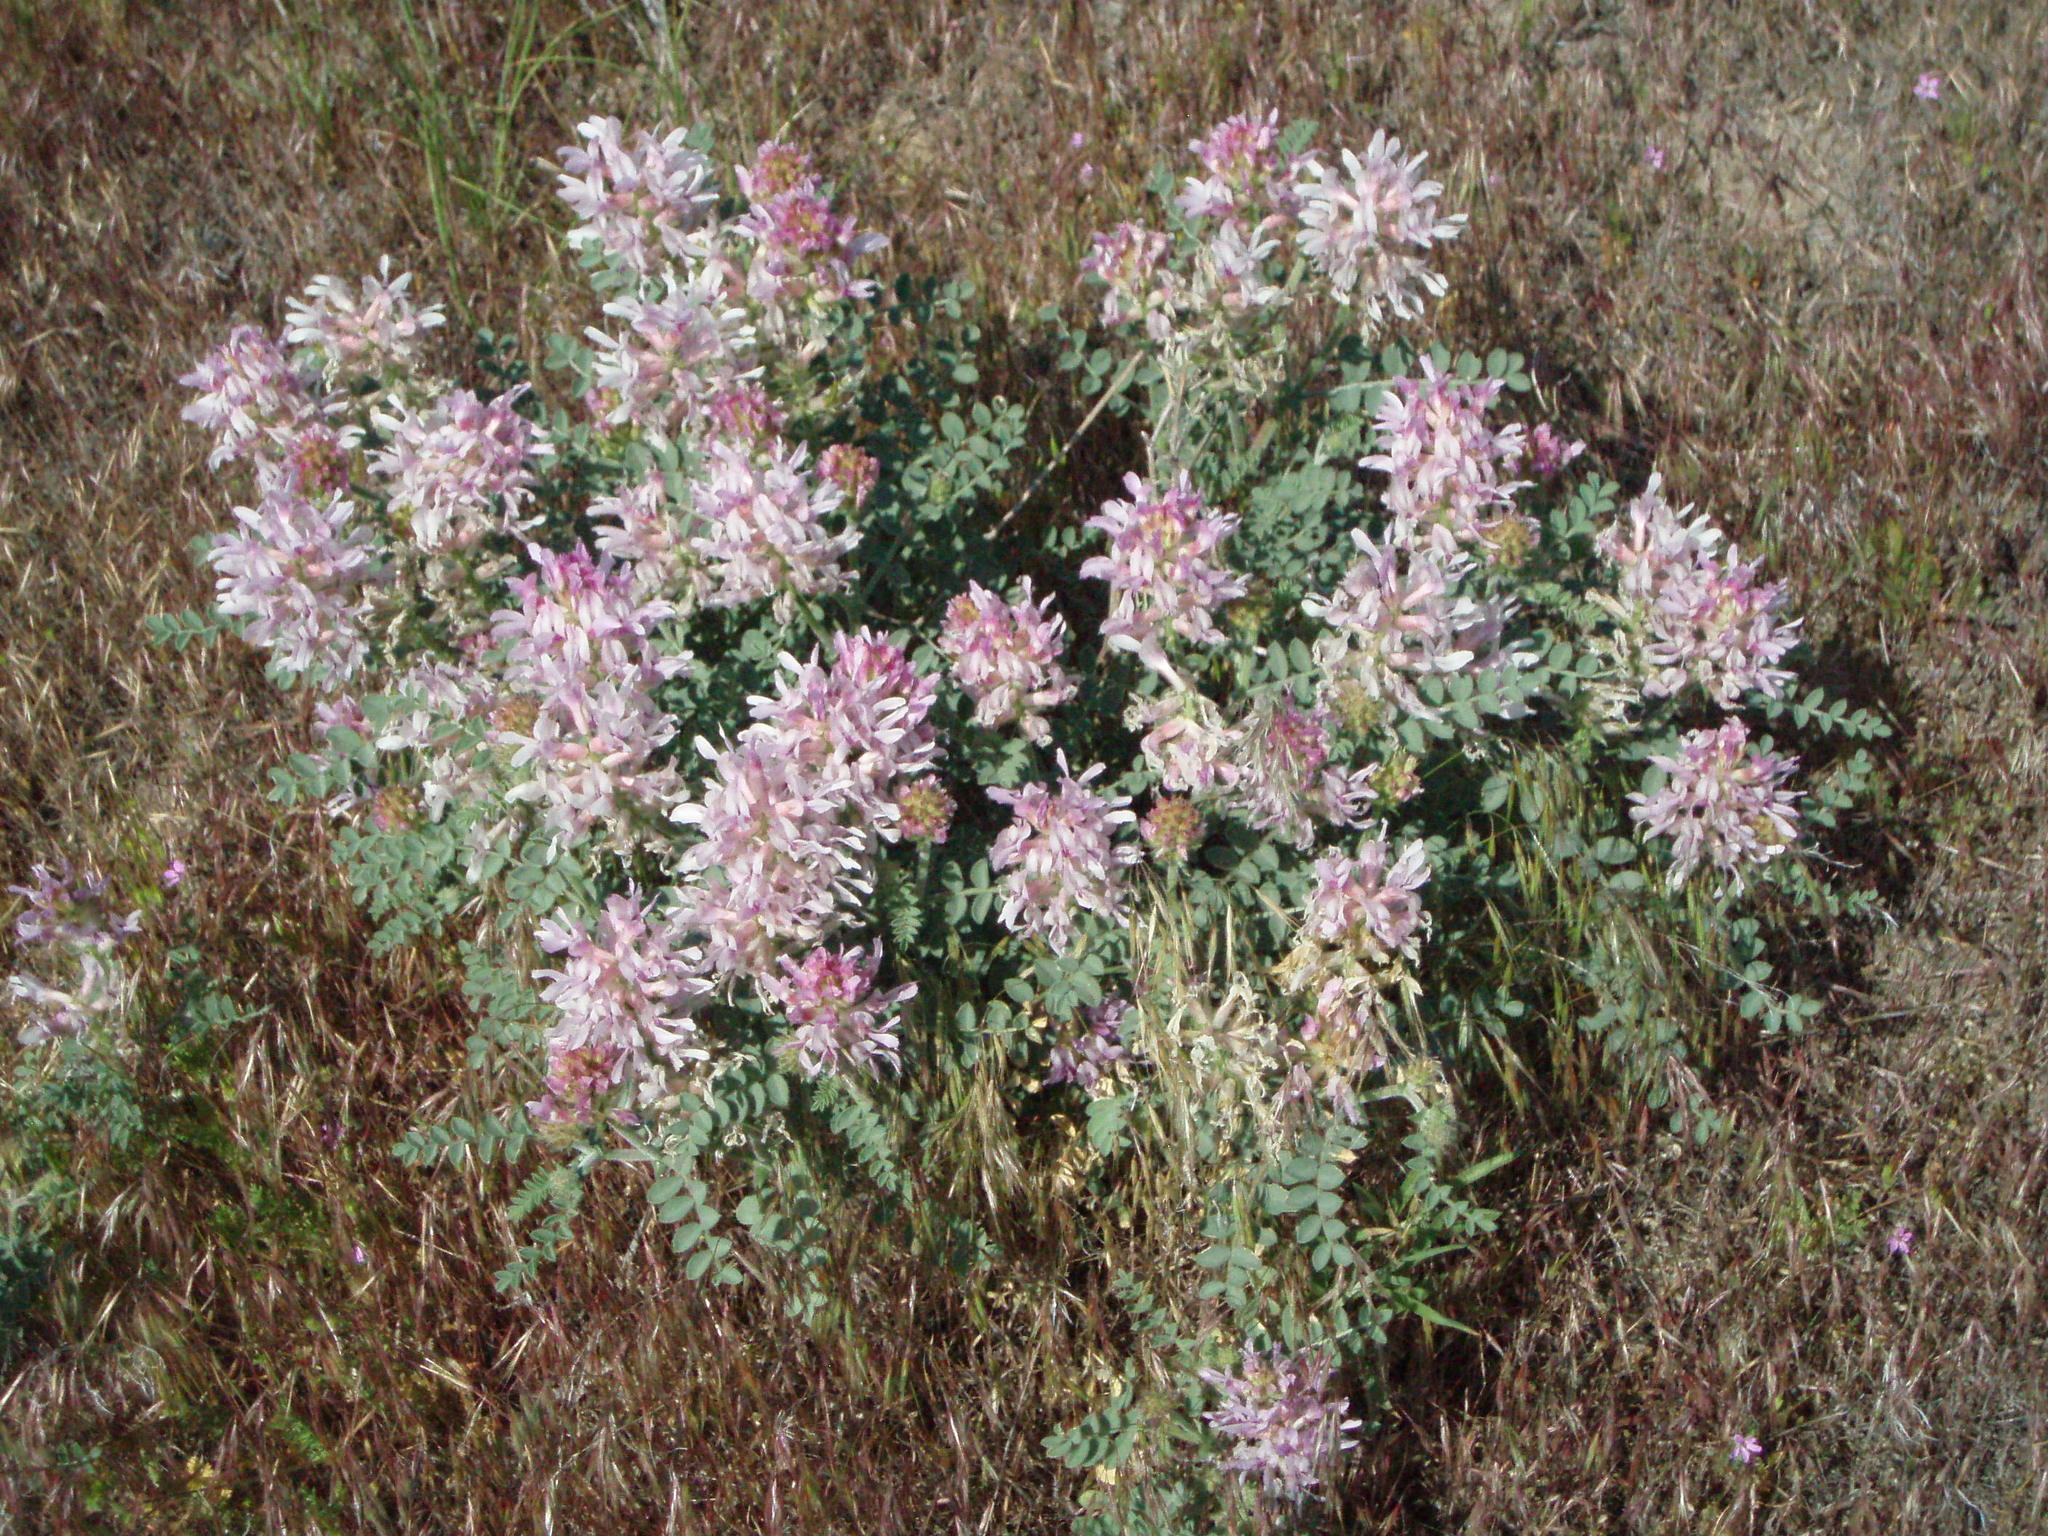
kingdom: Plantae
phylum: Tracheophyta
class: Magnoliopsida
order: Fabales
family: Fabaceae
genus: Astragalus
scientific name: Astragalus succumbens
